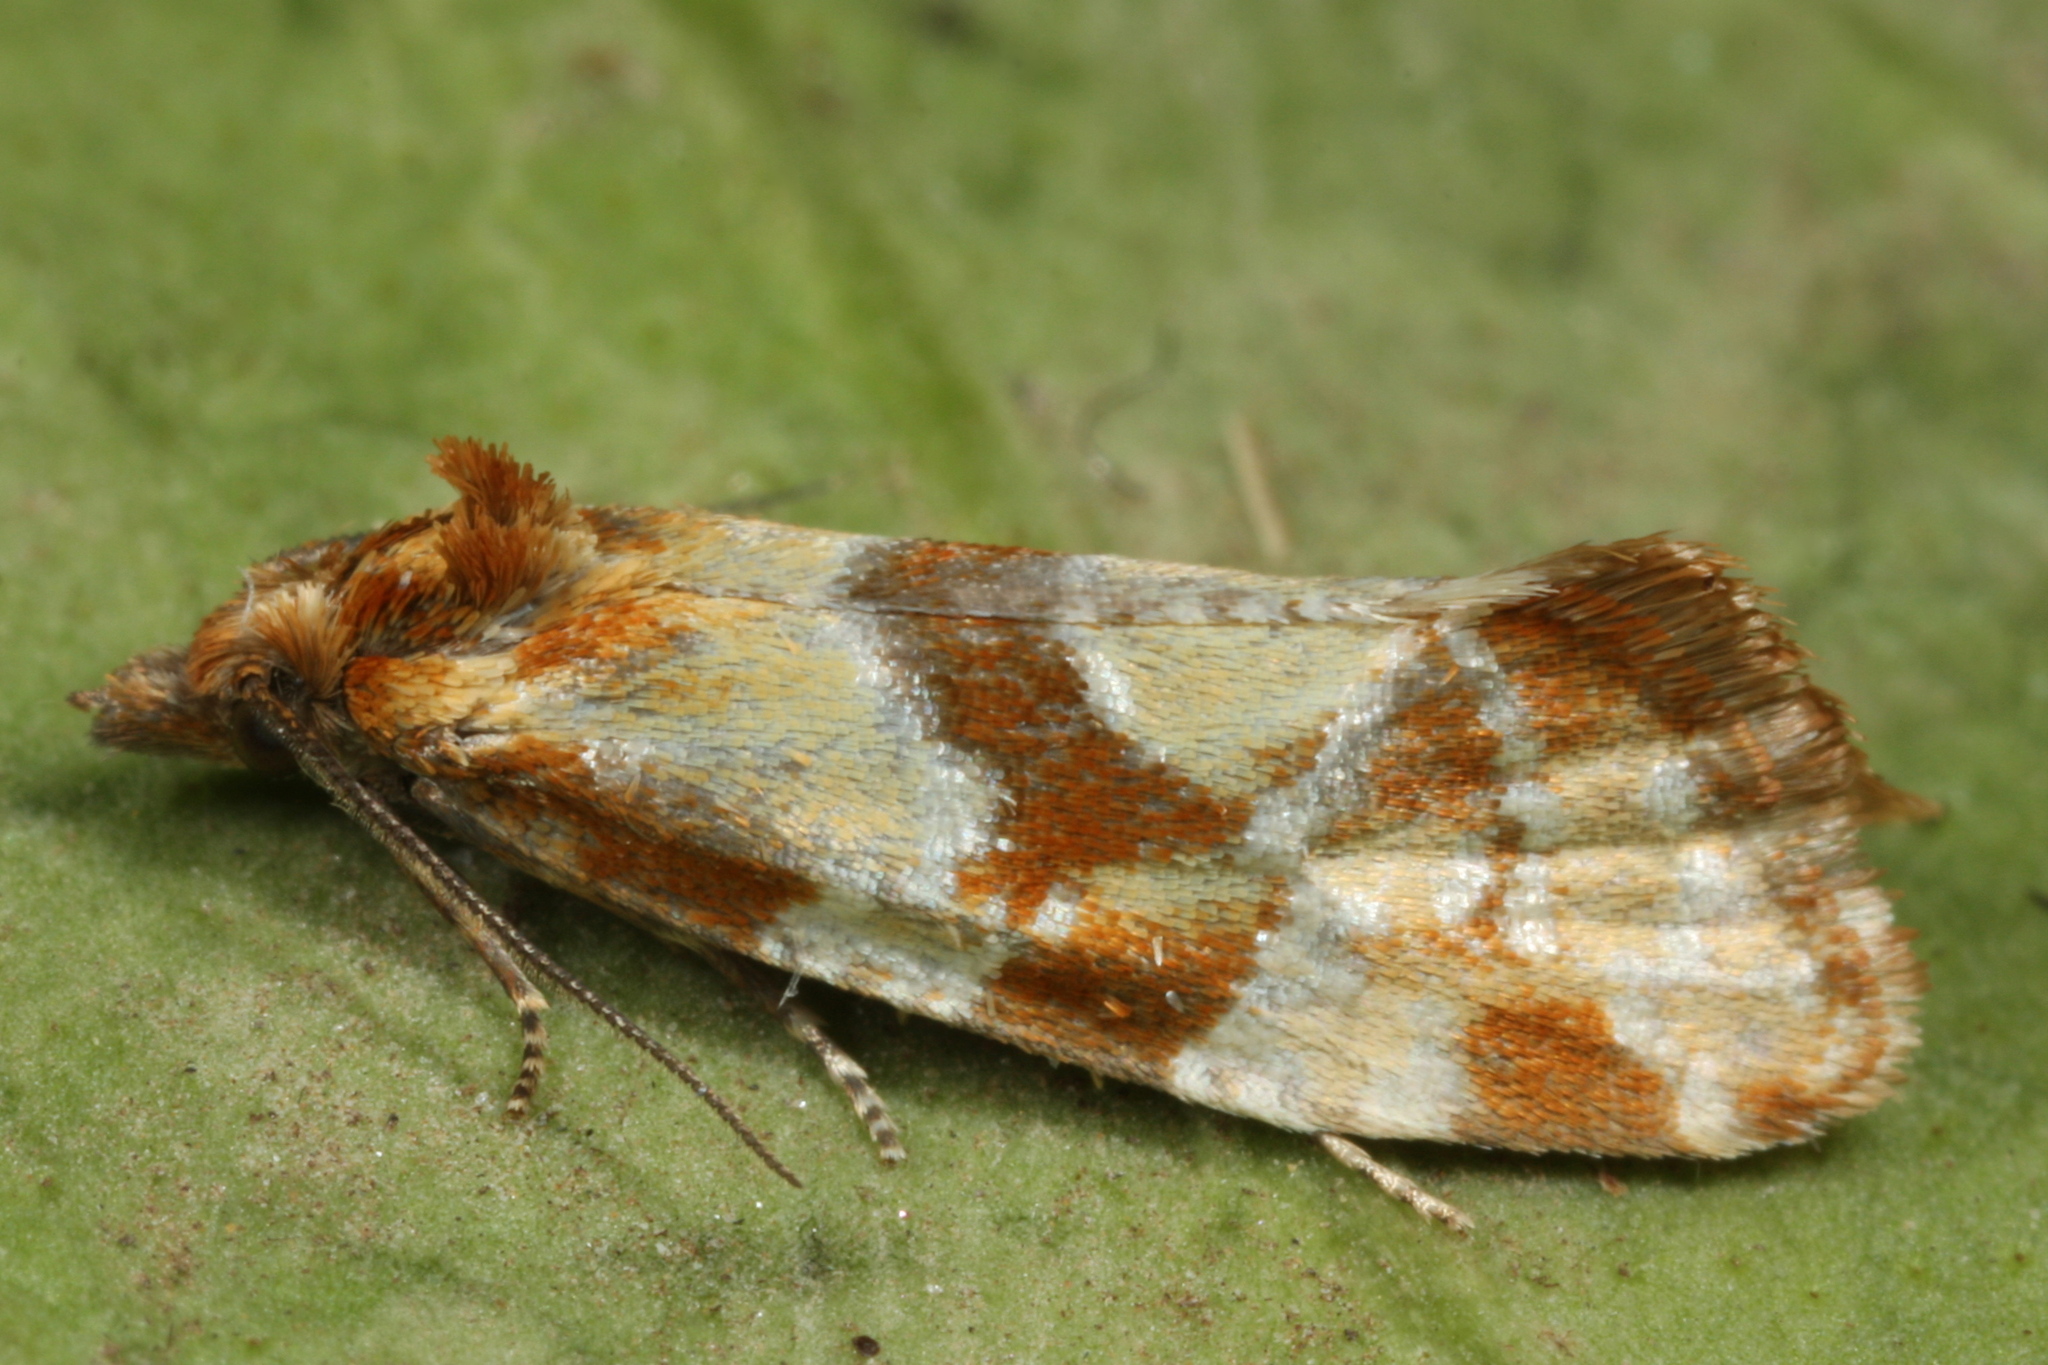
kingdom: Animalia
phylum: Arthropoda
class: Insecta
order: Lepidoptera
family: Tortricidae
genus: Aethes
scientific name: Aethes hartmanniana
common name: Scabious conch
